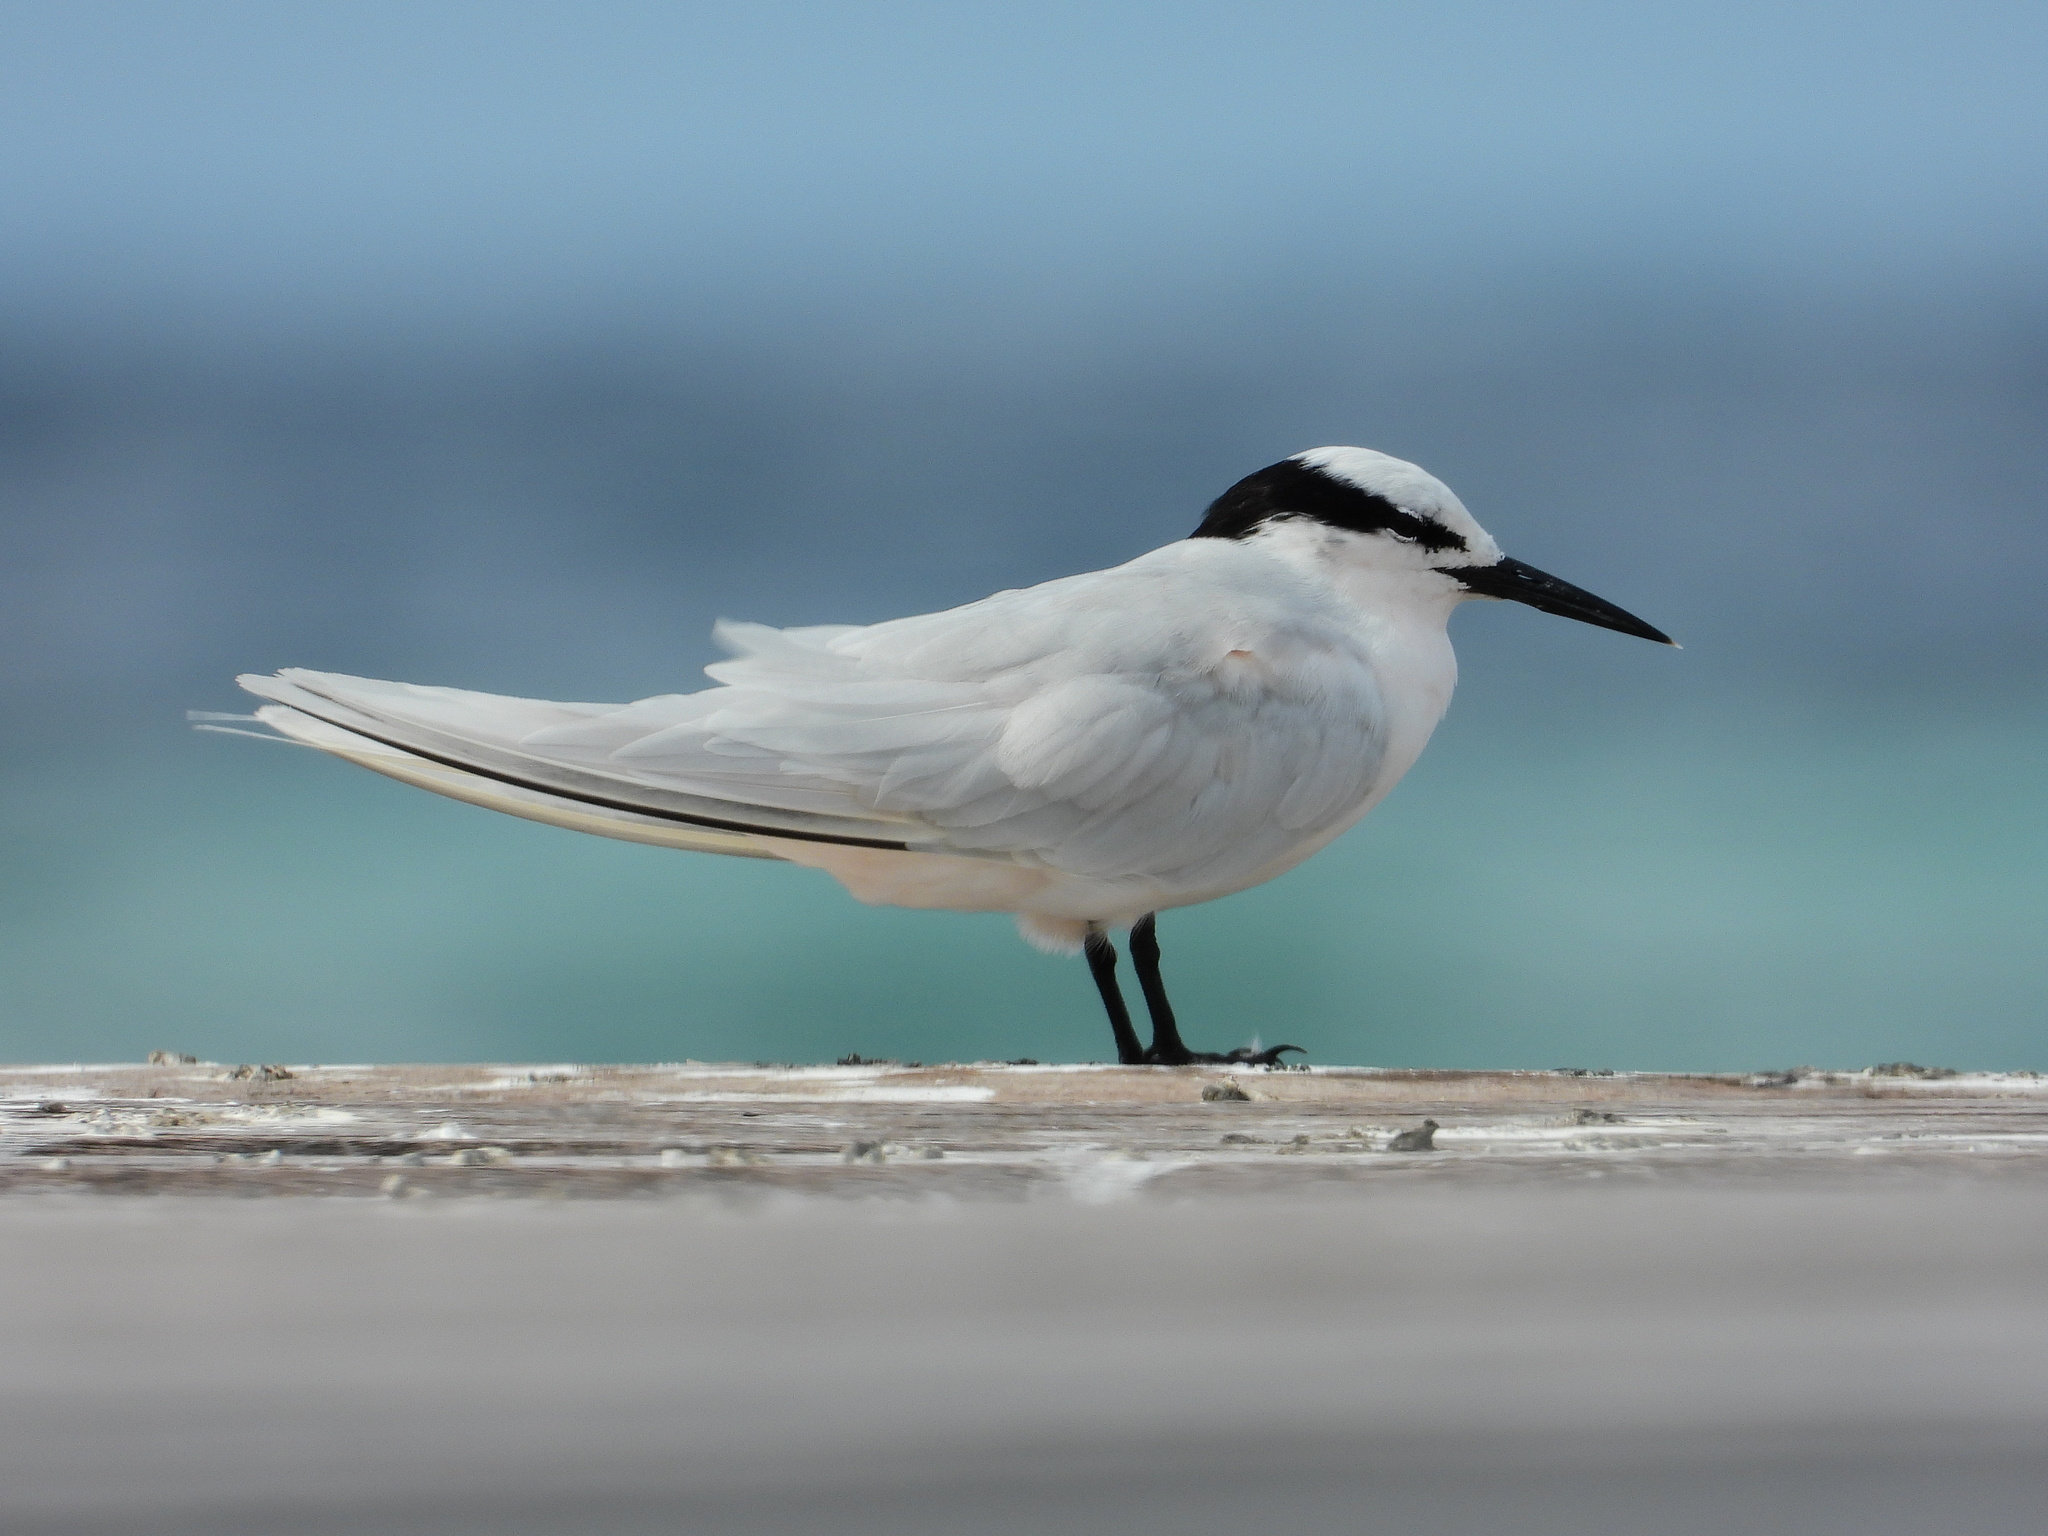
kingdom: Animalia
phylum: Chordata
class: Aves
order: Charadriiformes
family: Laridae
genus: Sterna
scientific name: Sterna sumatrana
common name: Black-naped tern
